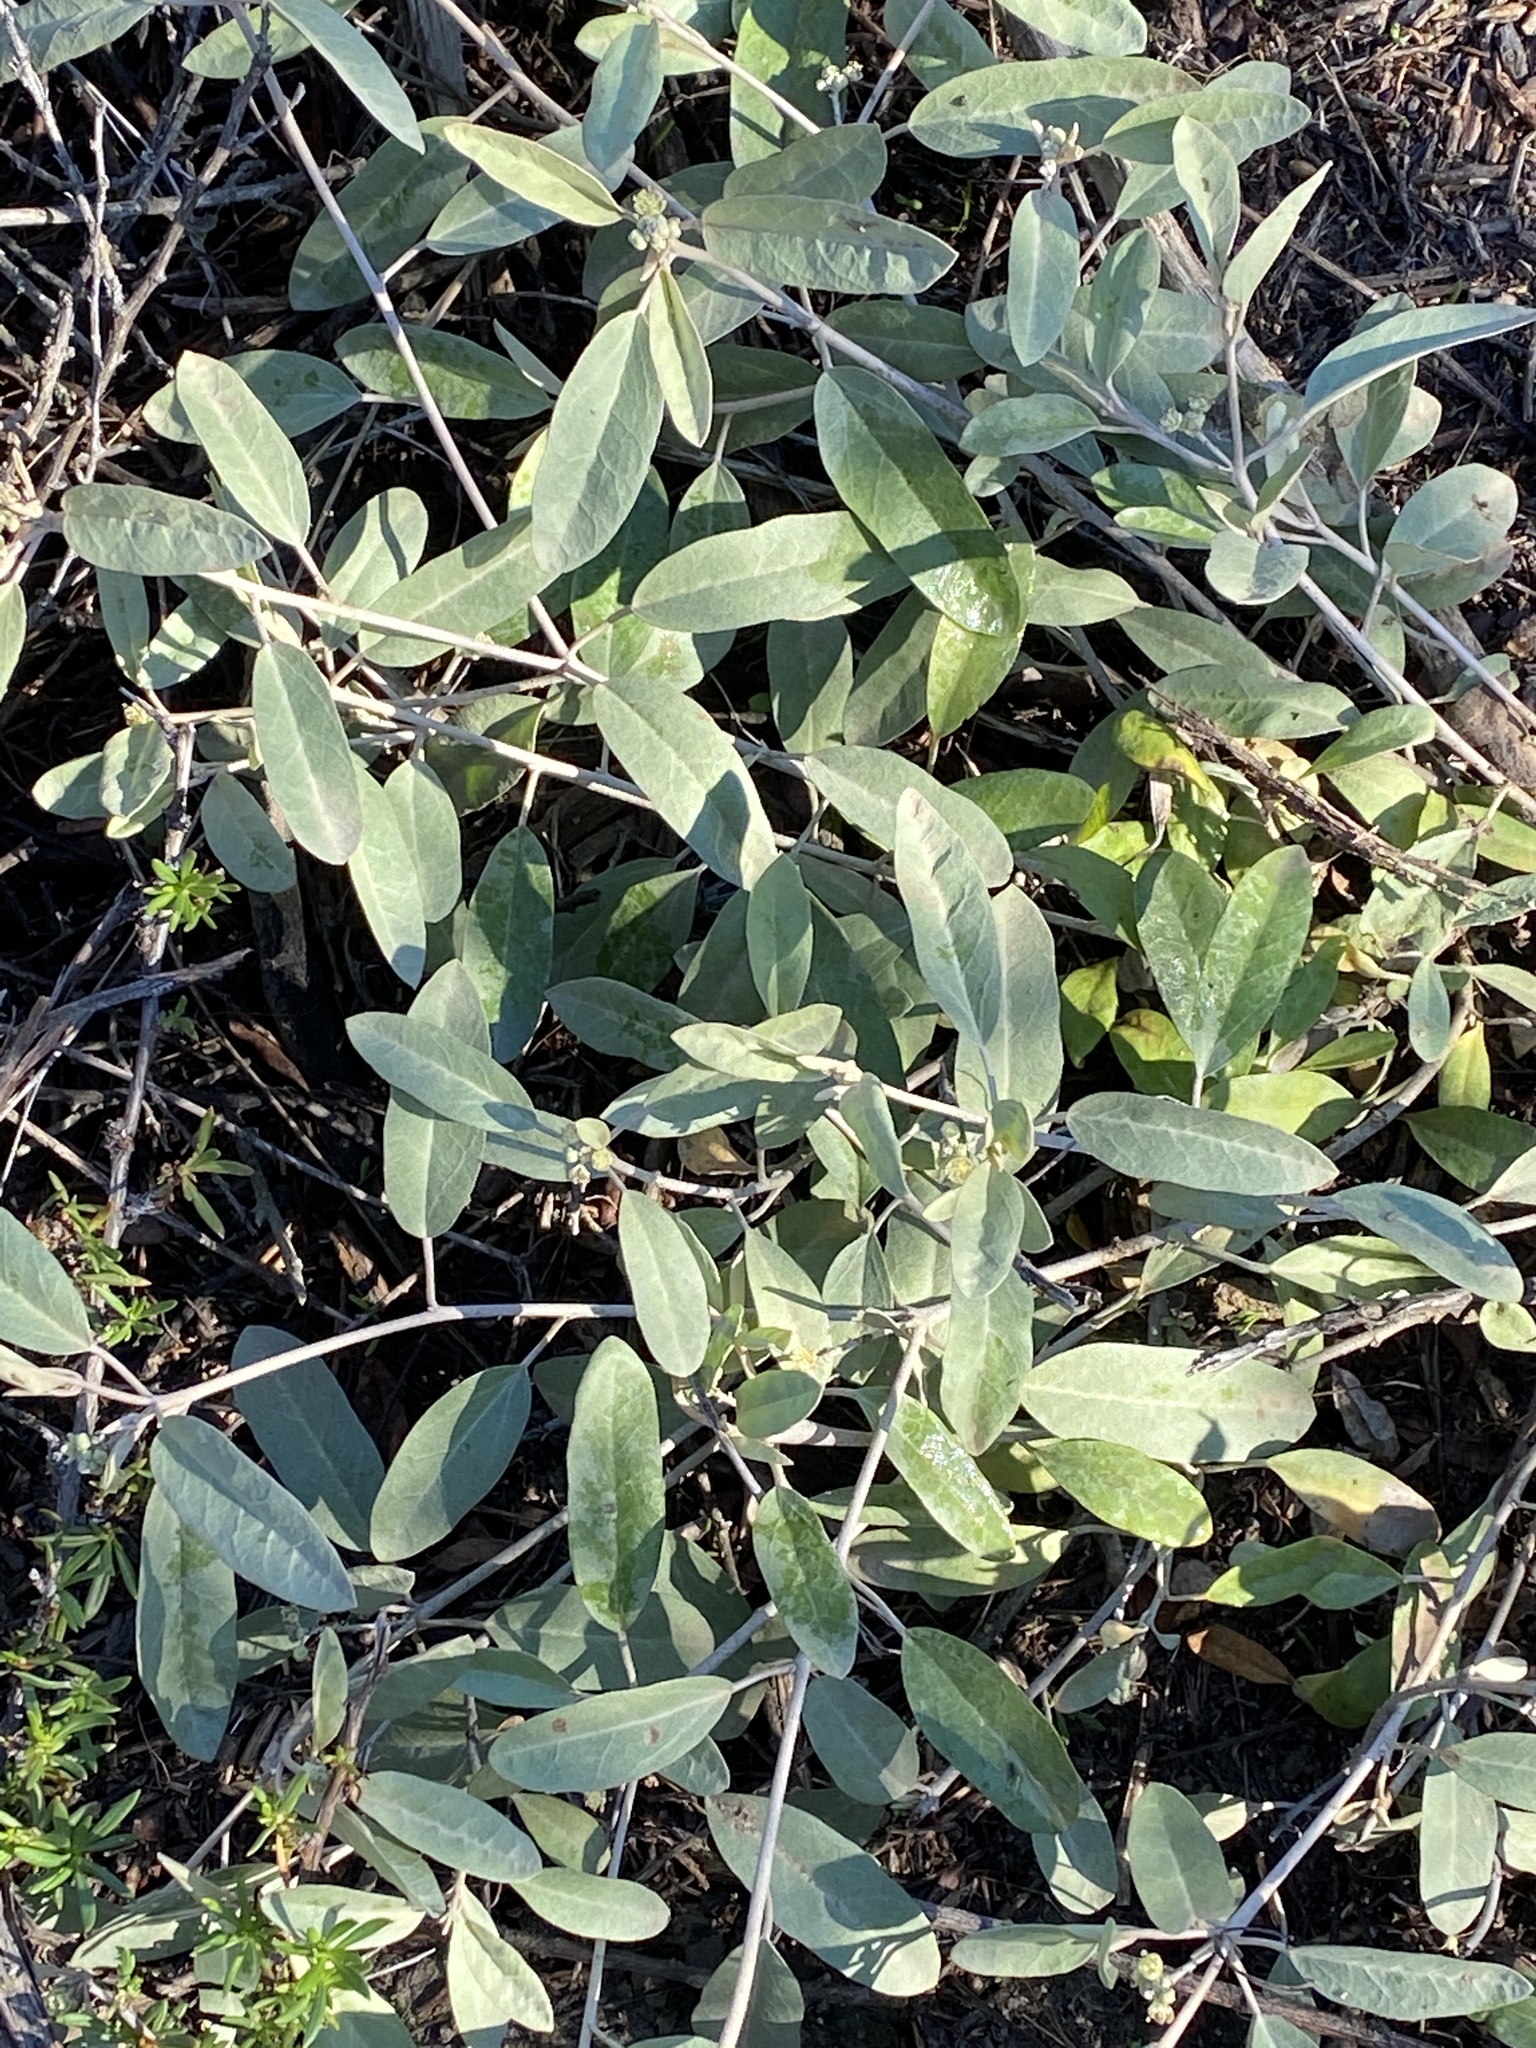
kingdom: Plantae
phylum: Tracheophyta
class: Magnoliopsida
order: Malpighiales
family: Euphorbiaceae
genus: Croton
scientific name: Croton californicus
